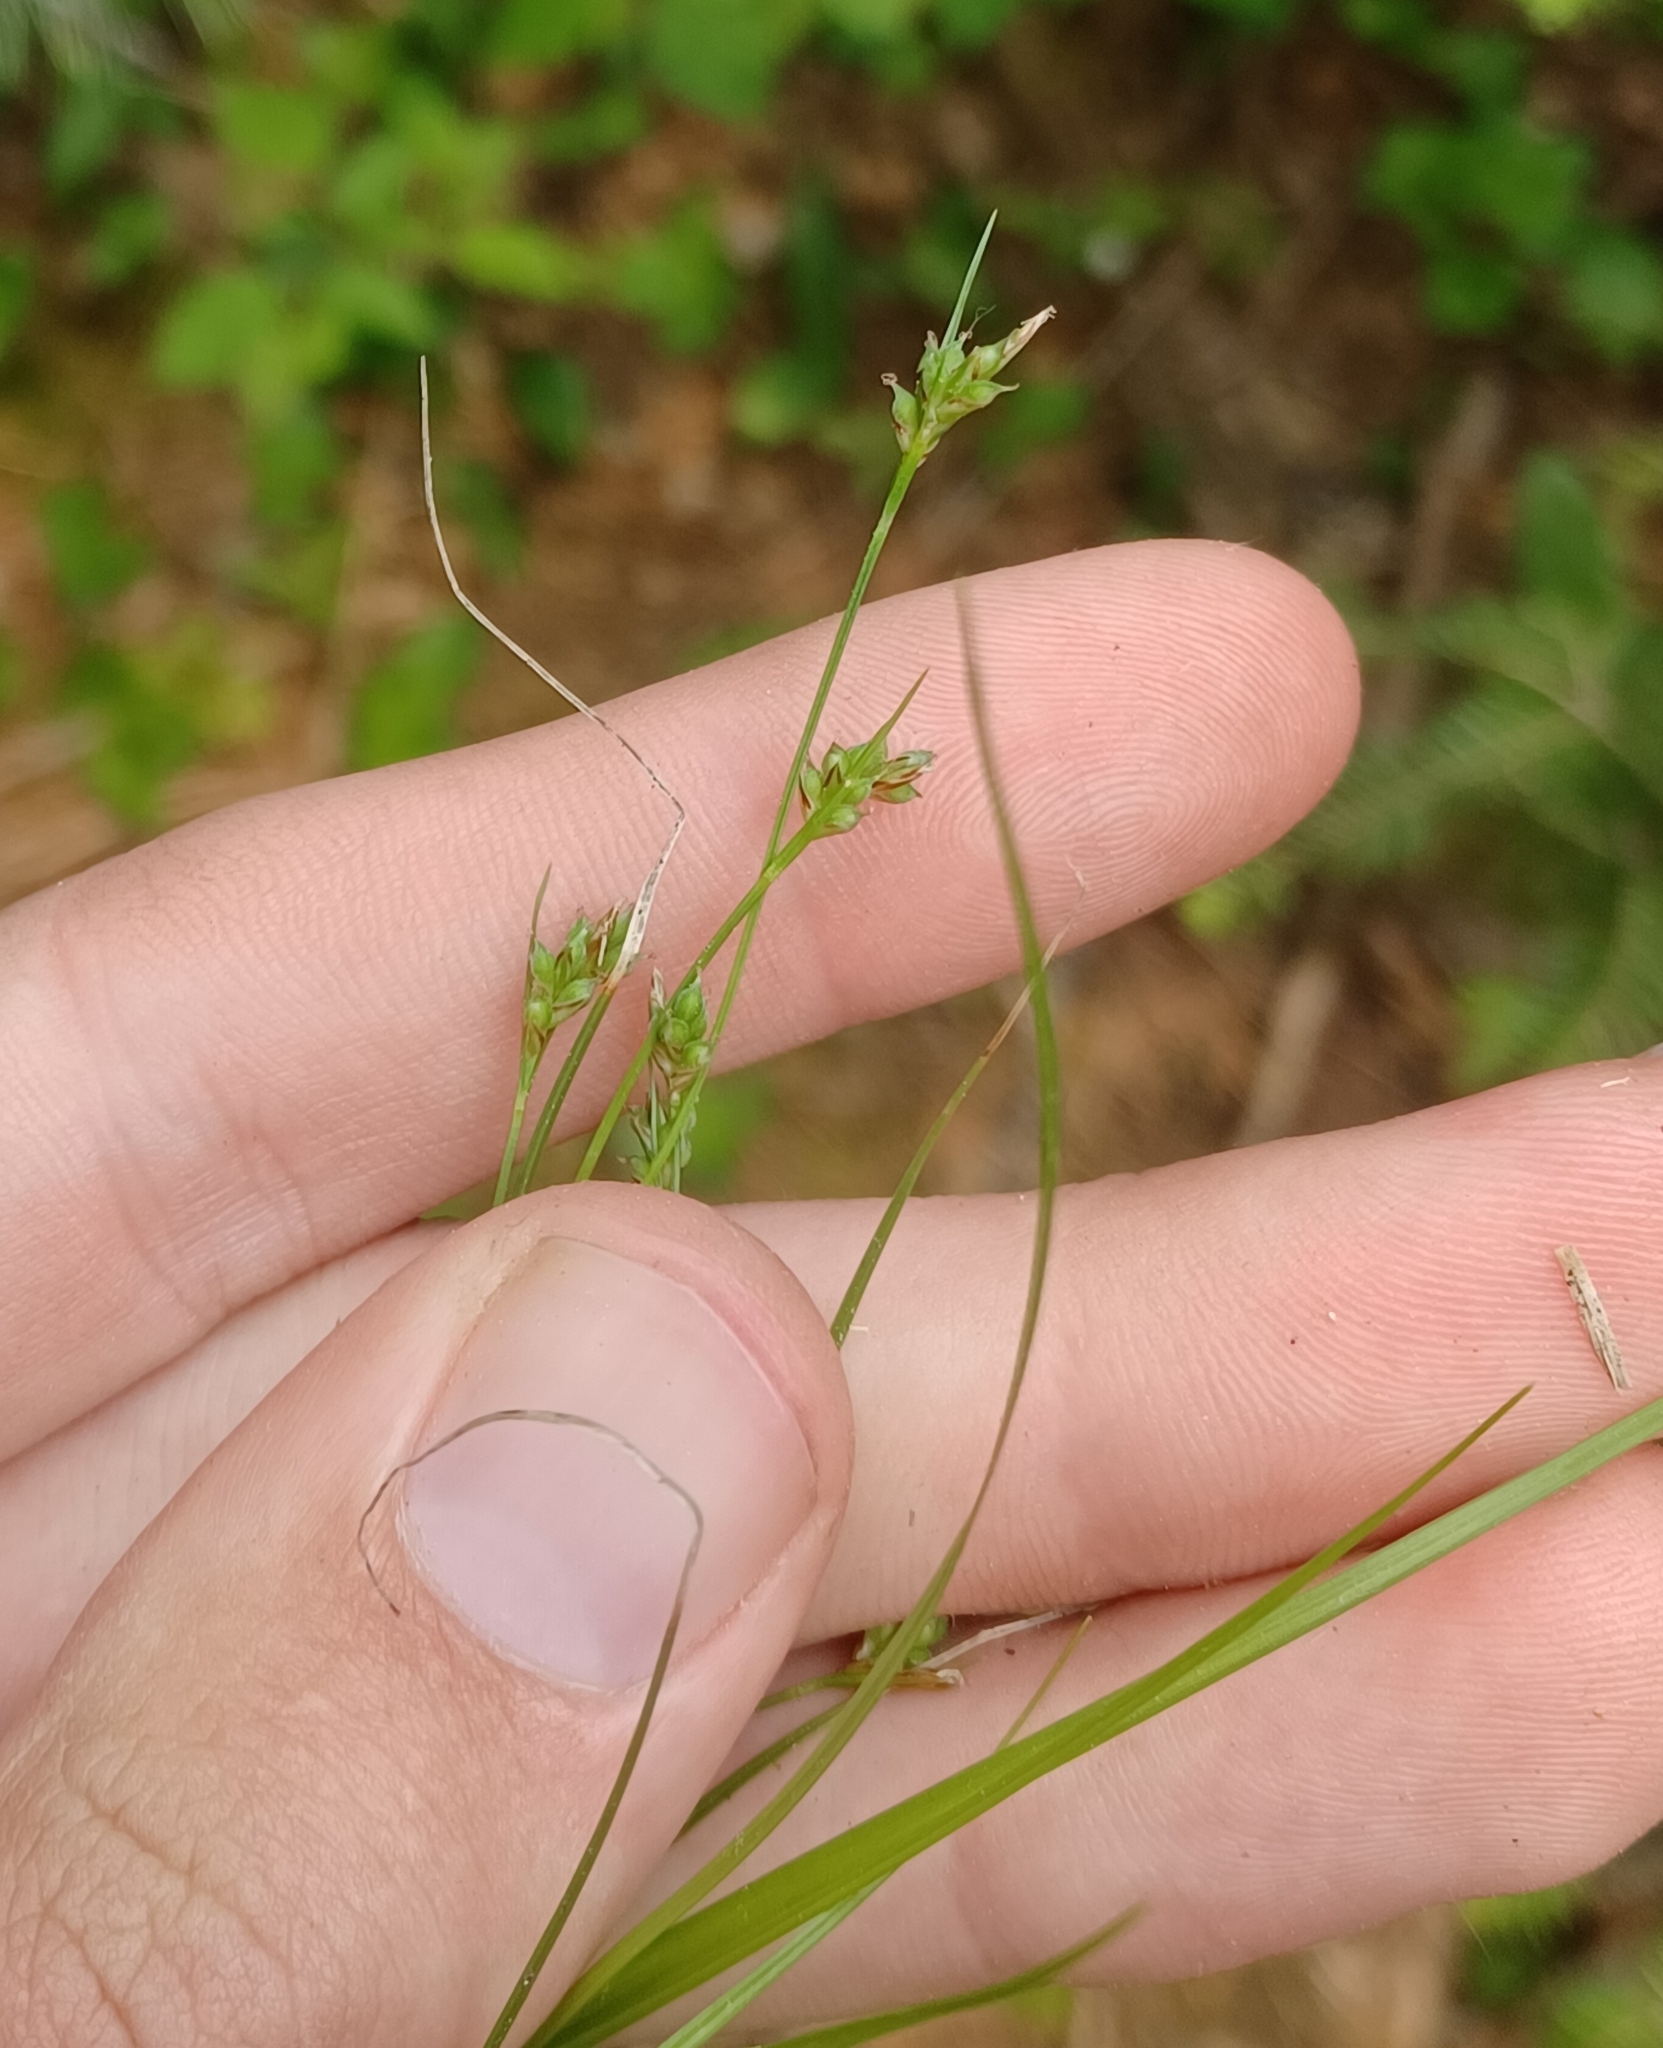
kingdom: Plantae
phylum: Tracheophyta
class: Liliopsida
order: Poales
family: Cyperaceae
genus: Carex
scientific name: Carex deflexa
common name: Bent northern sedge
